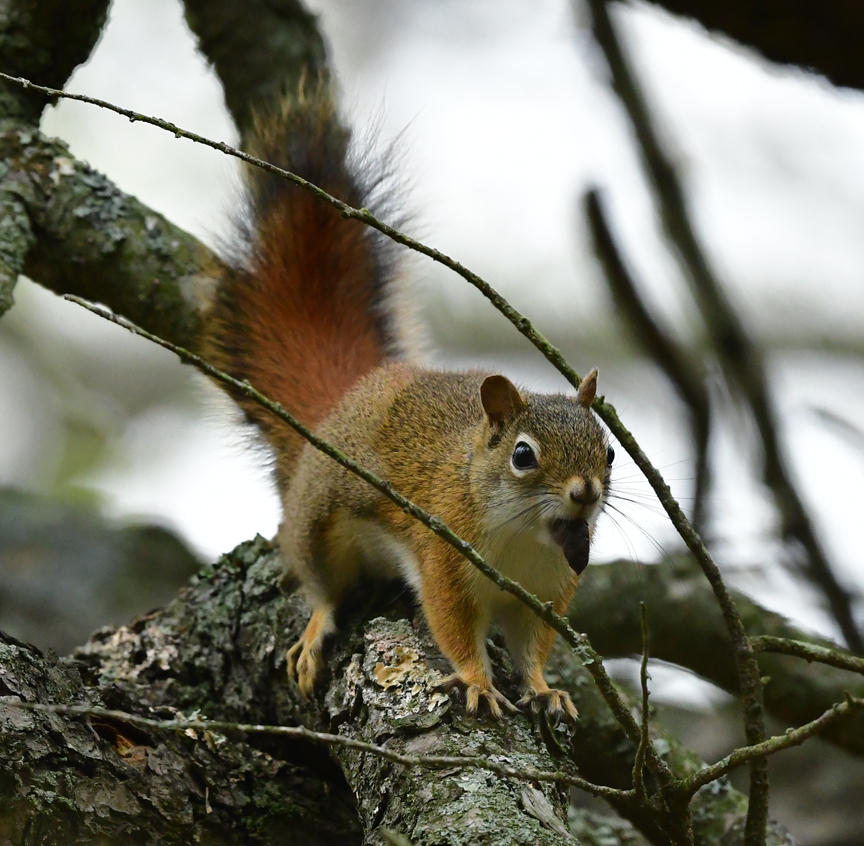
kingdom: Animalia
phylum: Chordata
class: Mammalia
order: Rodentia
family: Sciuridae
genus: Tamiasciurus
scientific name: Tamiasciurus hudsonicus
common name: Red squirrel
